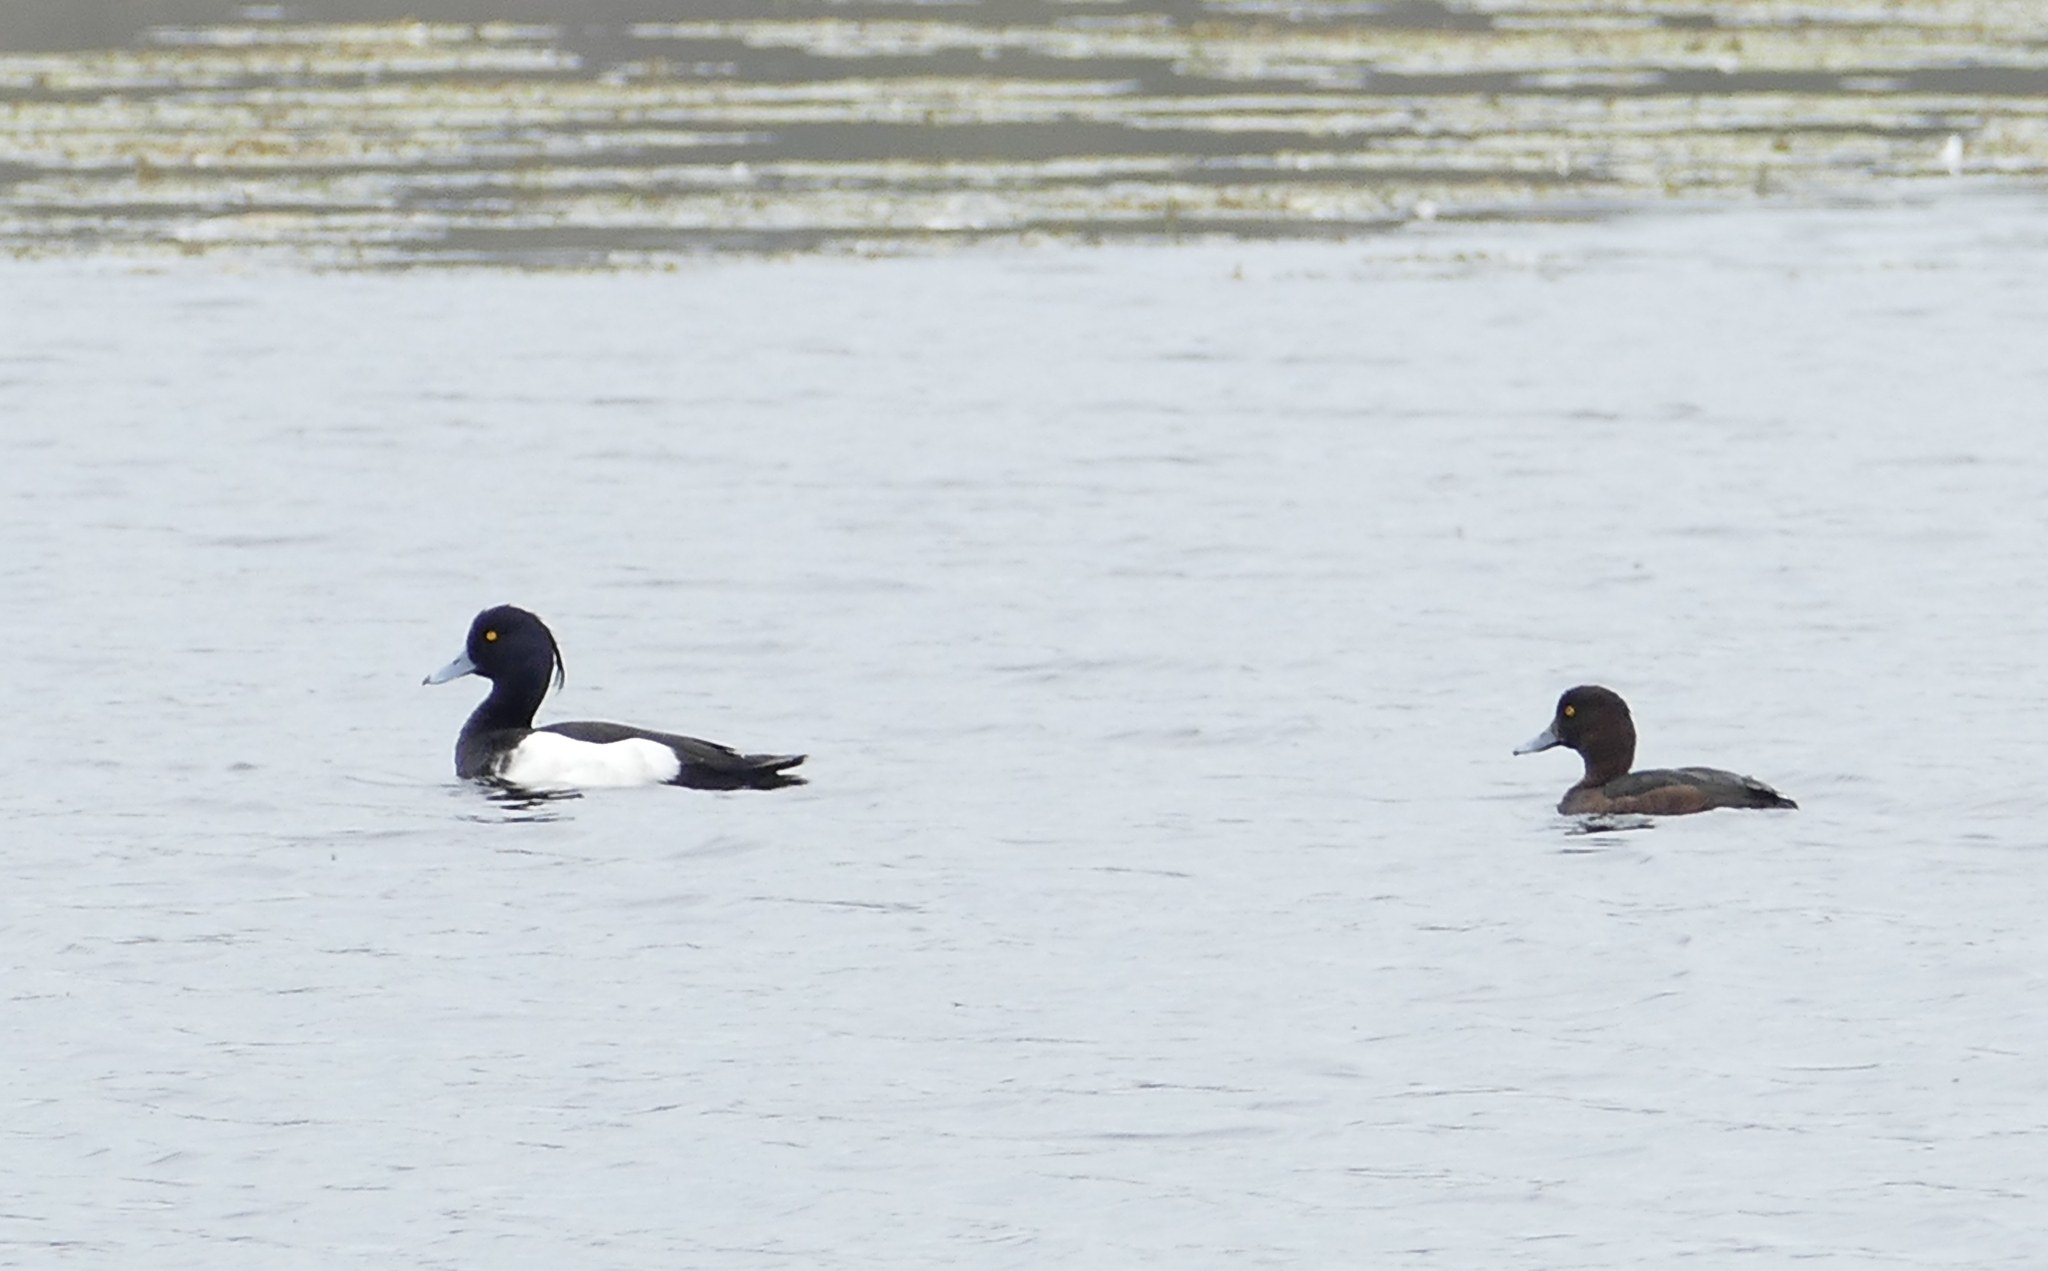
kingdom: Animalia
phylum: Chordata
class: Aves
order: Anseriformes
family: Anatidae
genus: Aythya
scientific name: Aythya fuligula
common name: Tufted duck
